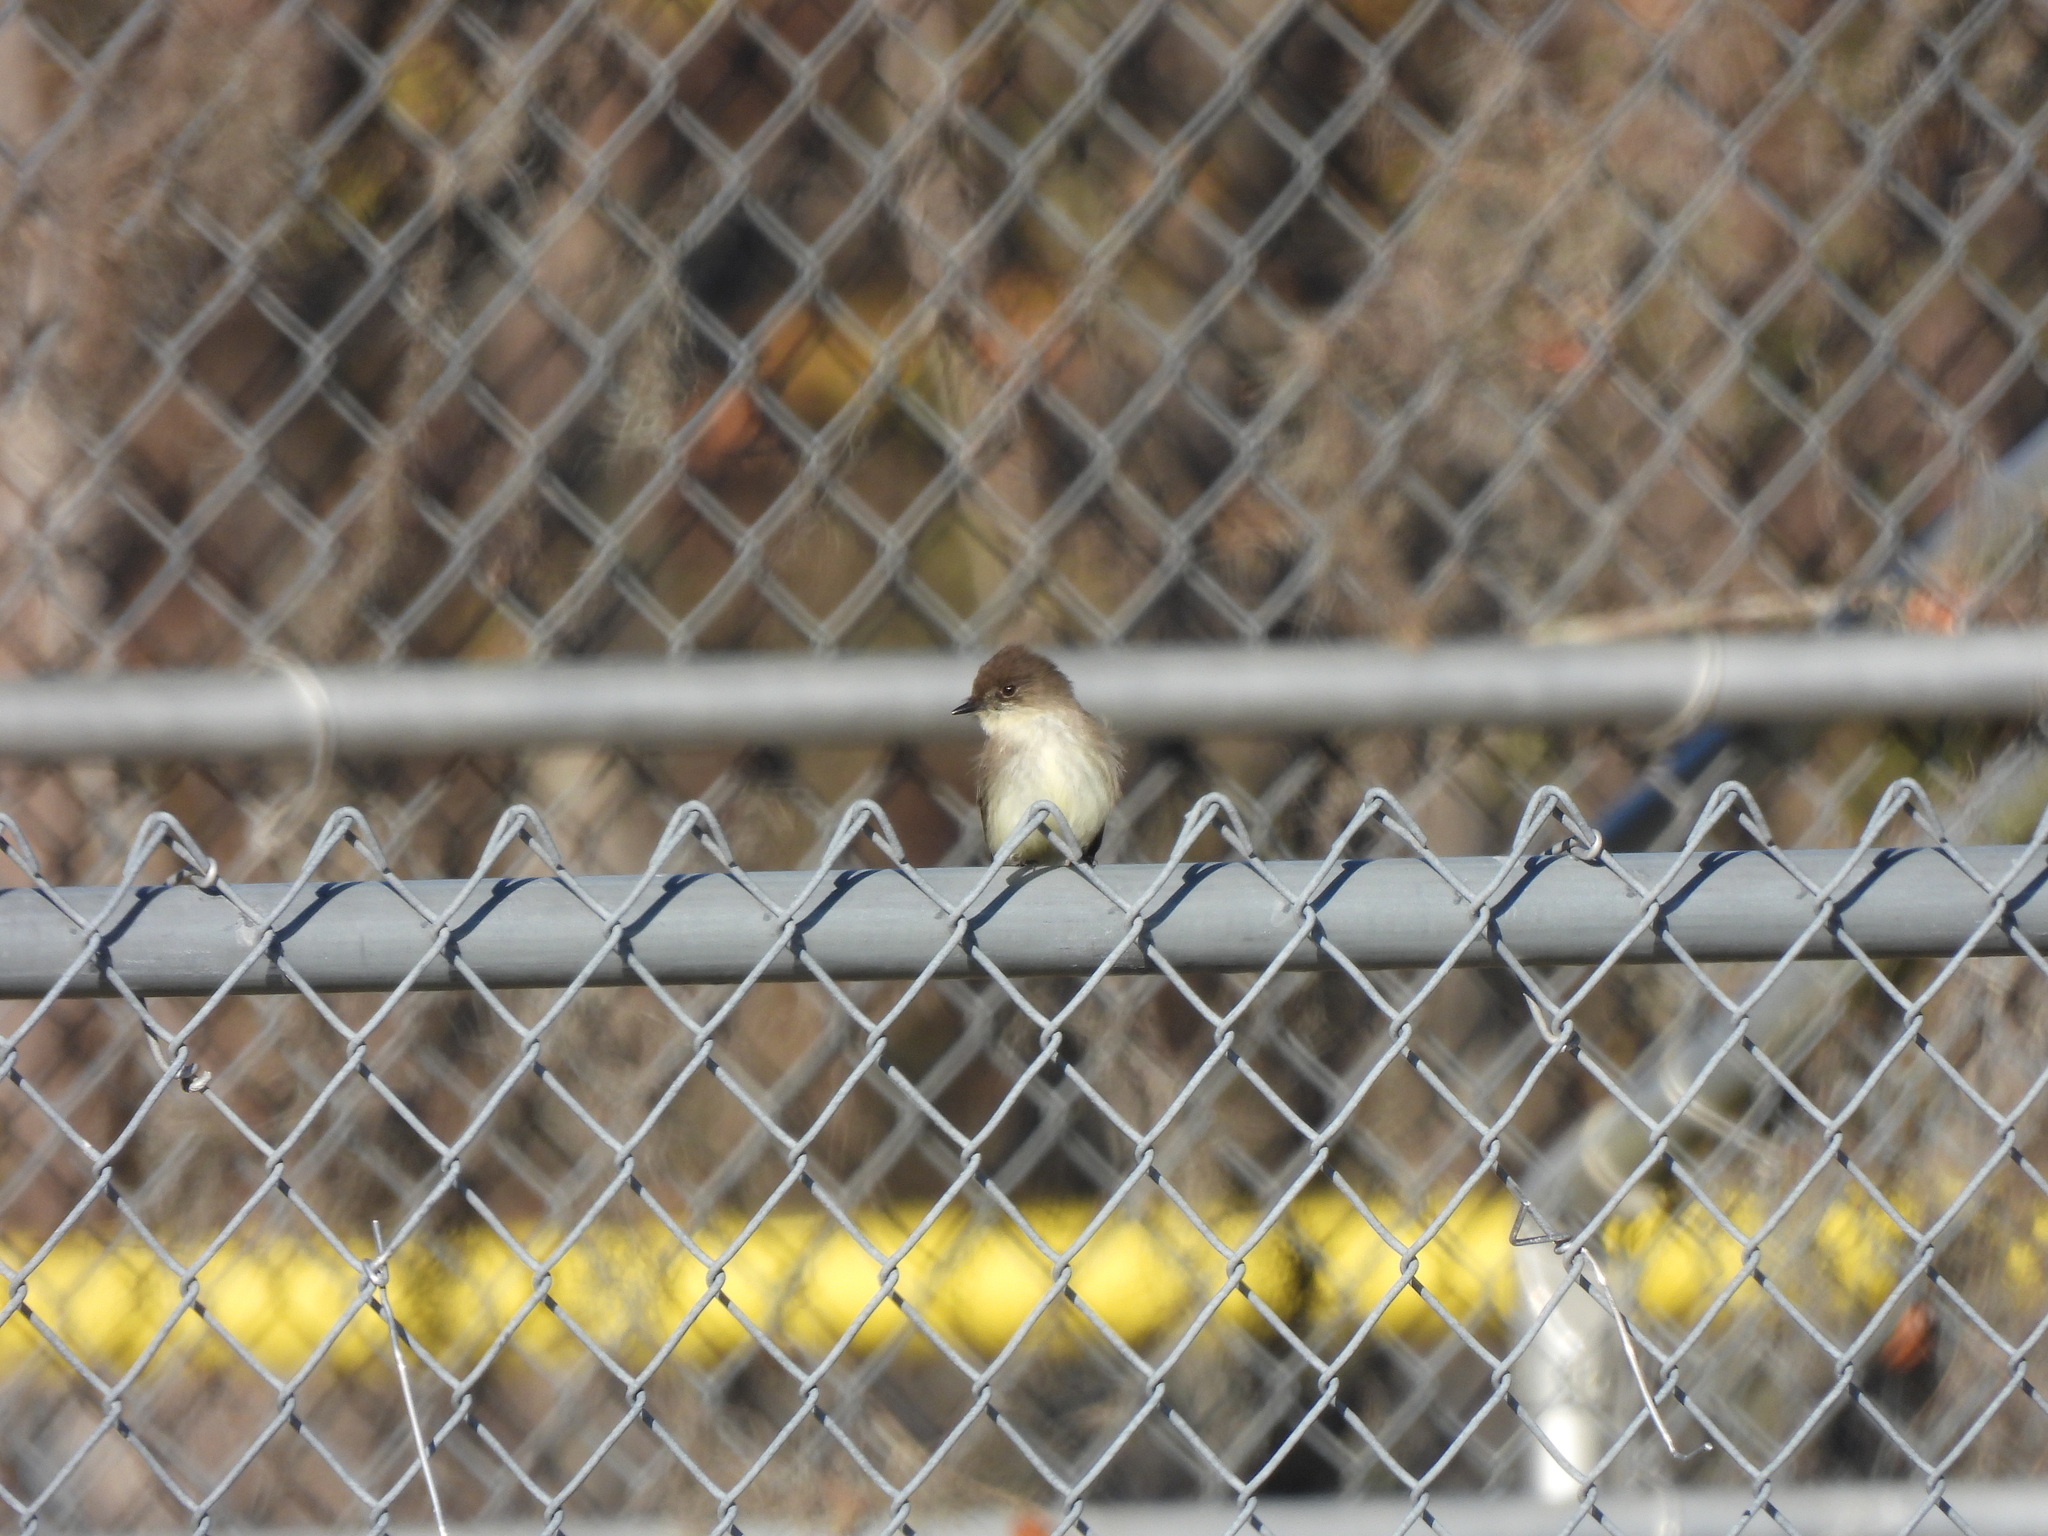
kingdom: Animalia
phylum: Chordata
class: Aves
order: Passeriformes
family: Tyrannidae
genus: Sayornis
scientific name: Sayornis phoebe
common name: Eastern phoebe
